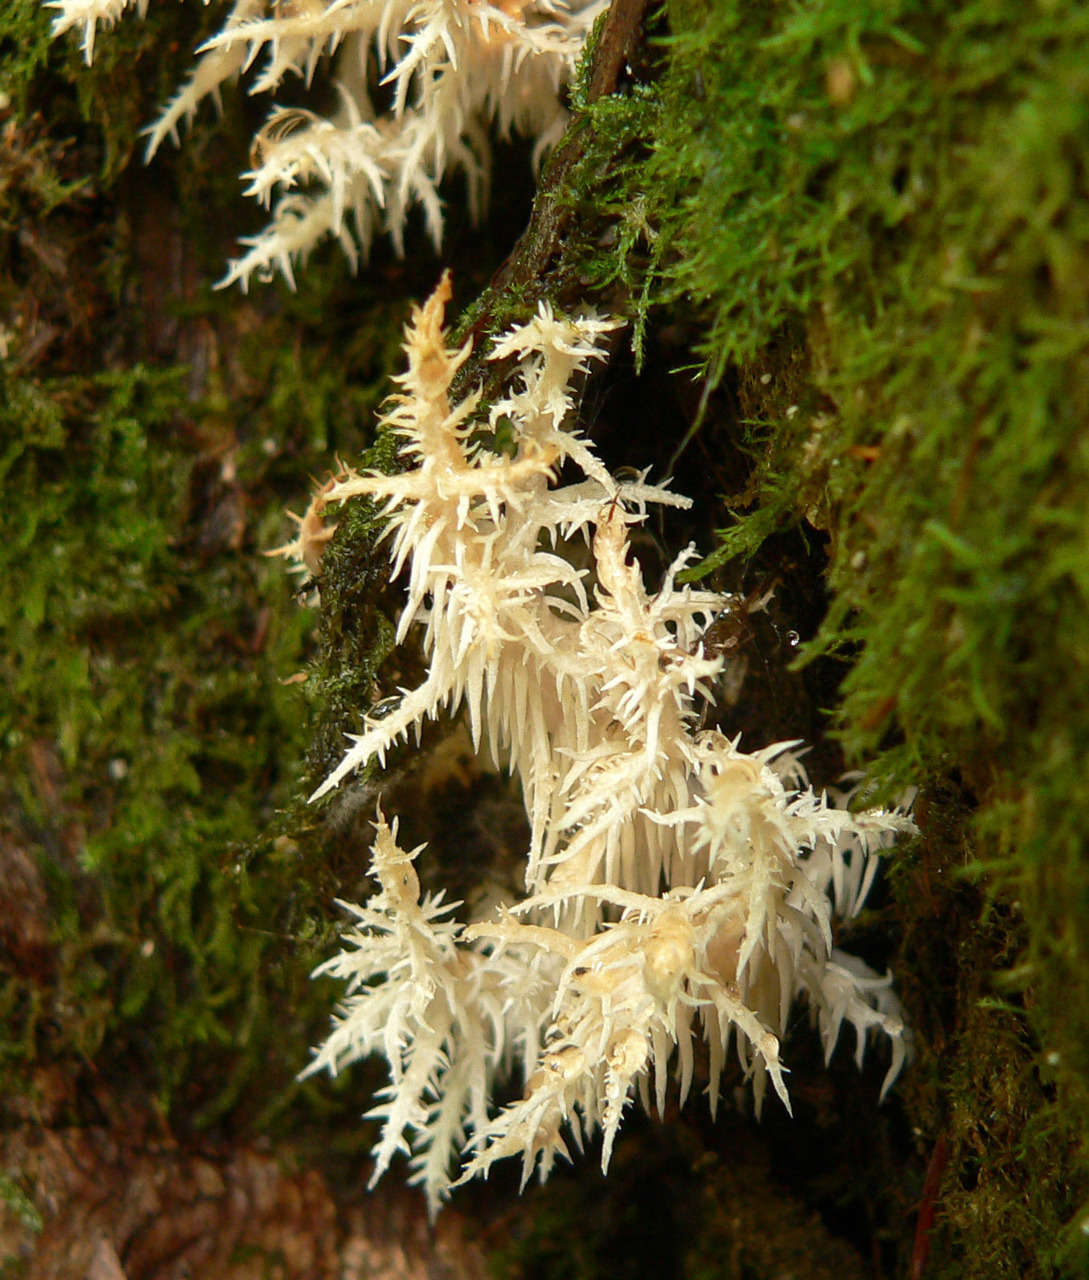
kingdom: Fungi
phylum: Basidiomycota
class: Agaricomycetes
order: Russulales
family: Hericiaceae
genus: Hericium
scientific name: Hericium coralloides
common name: Coral tooth
